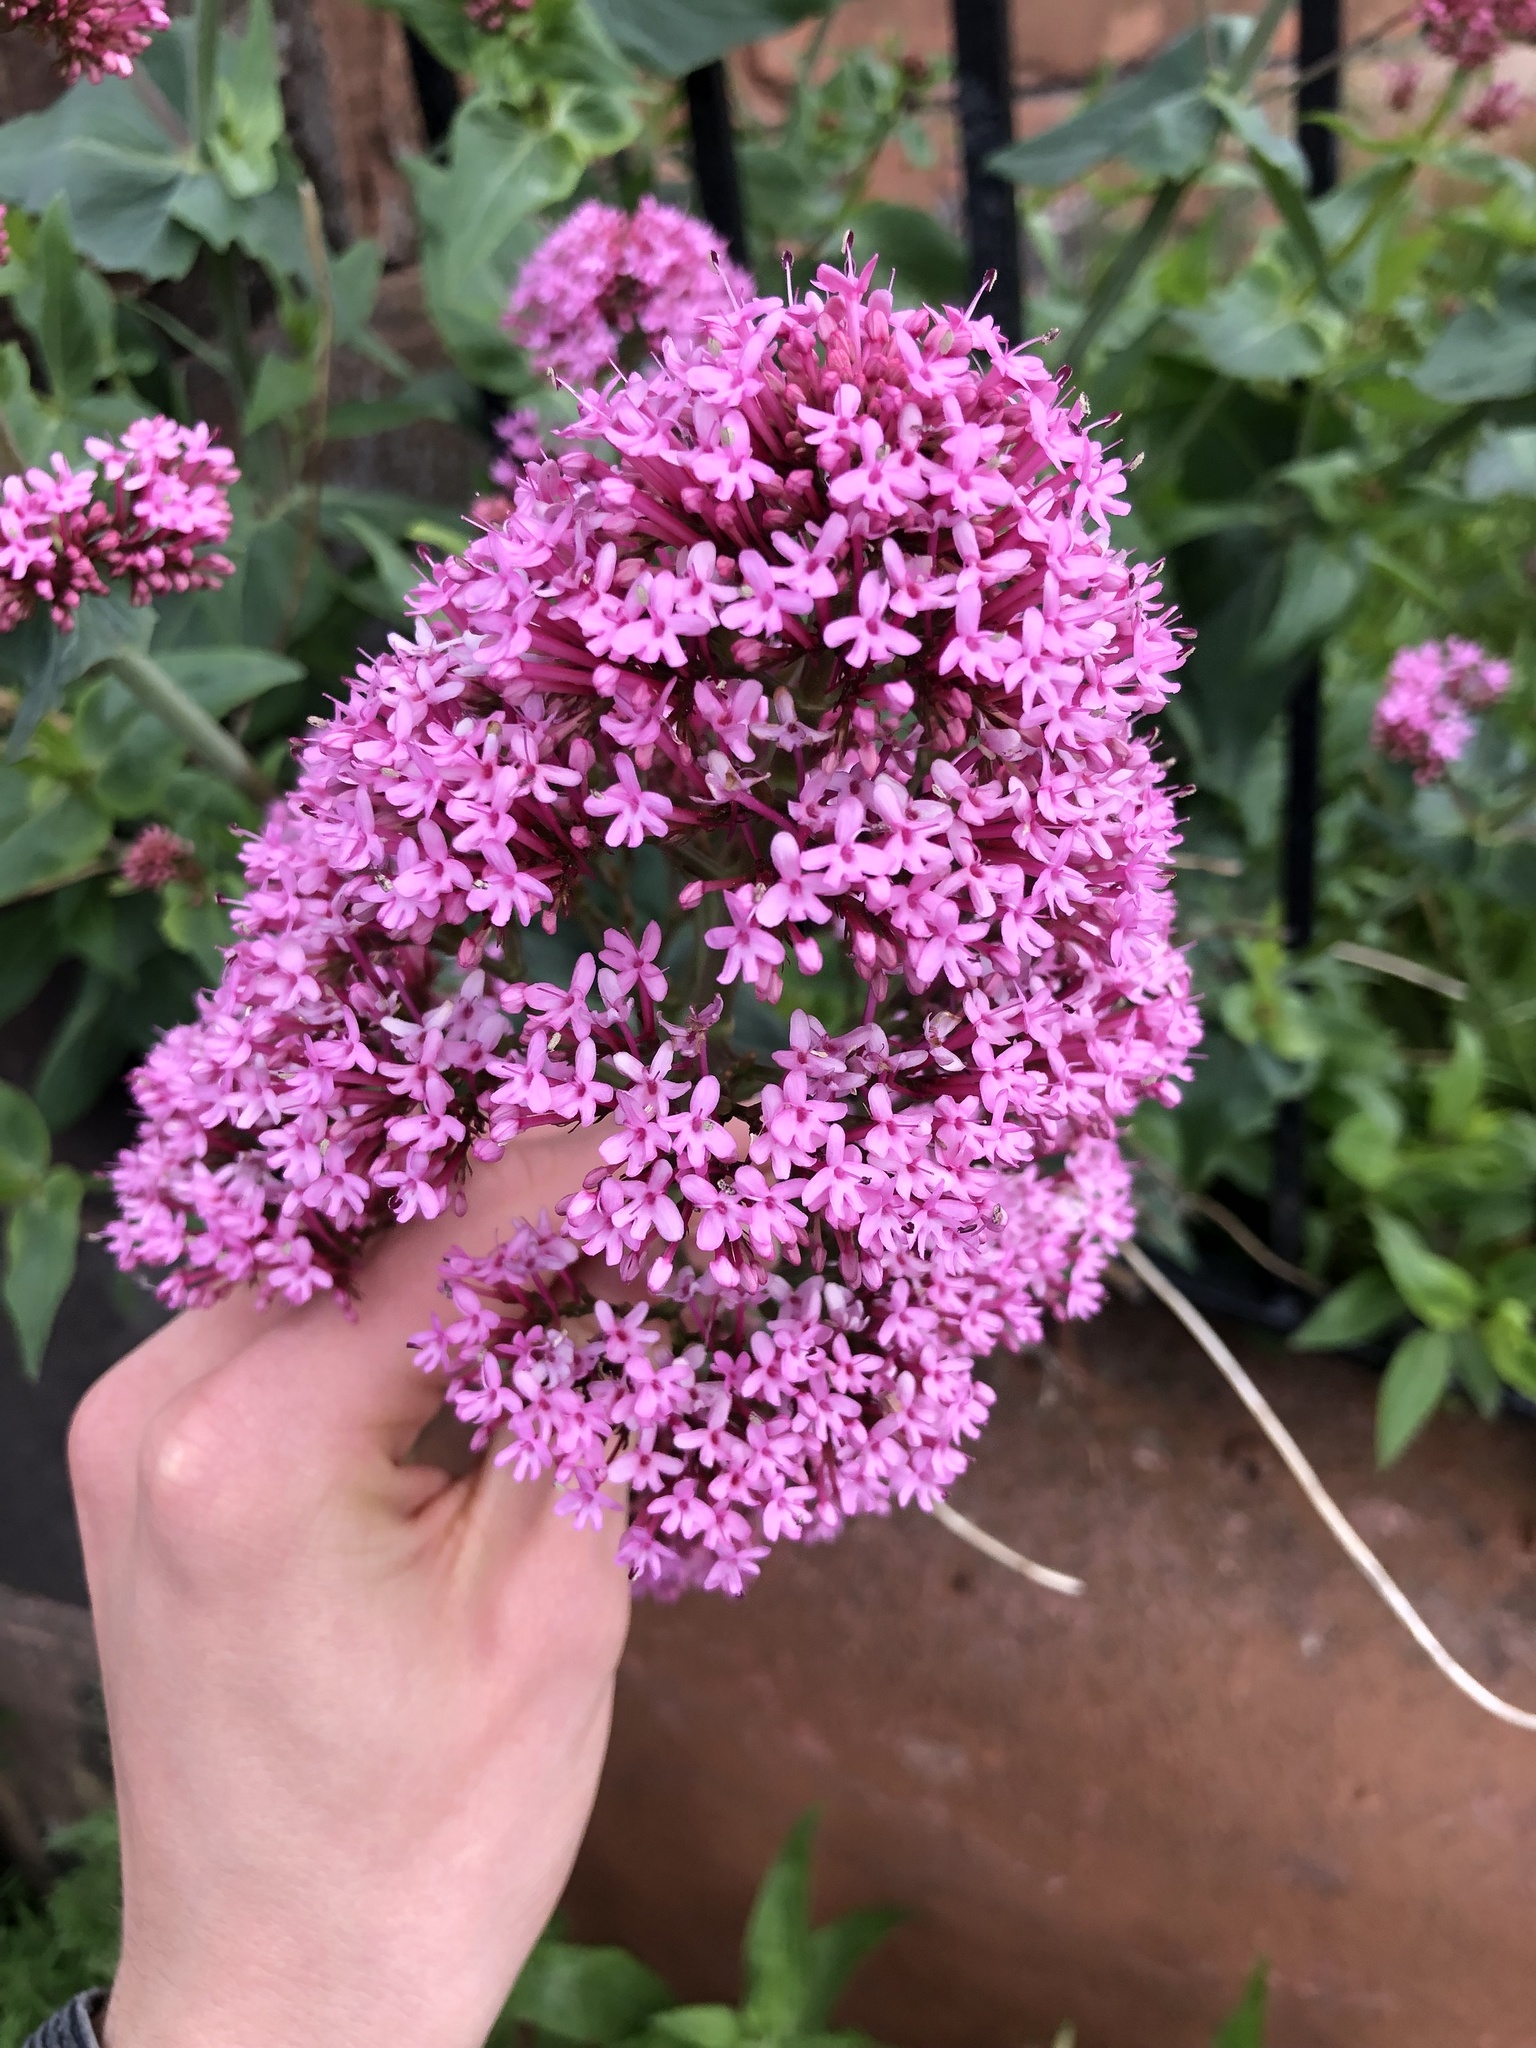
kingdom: Plantae
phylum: Tracheophyta
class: Magnoliopsida
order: Dipsacales
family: Caprifoliaceae
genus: Centranthus
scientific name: Centranthus ruber
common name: Red valerian
